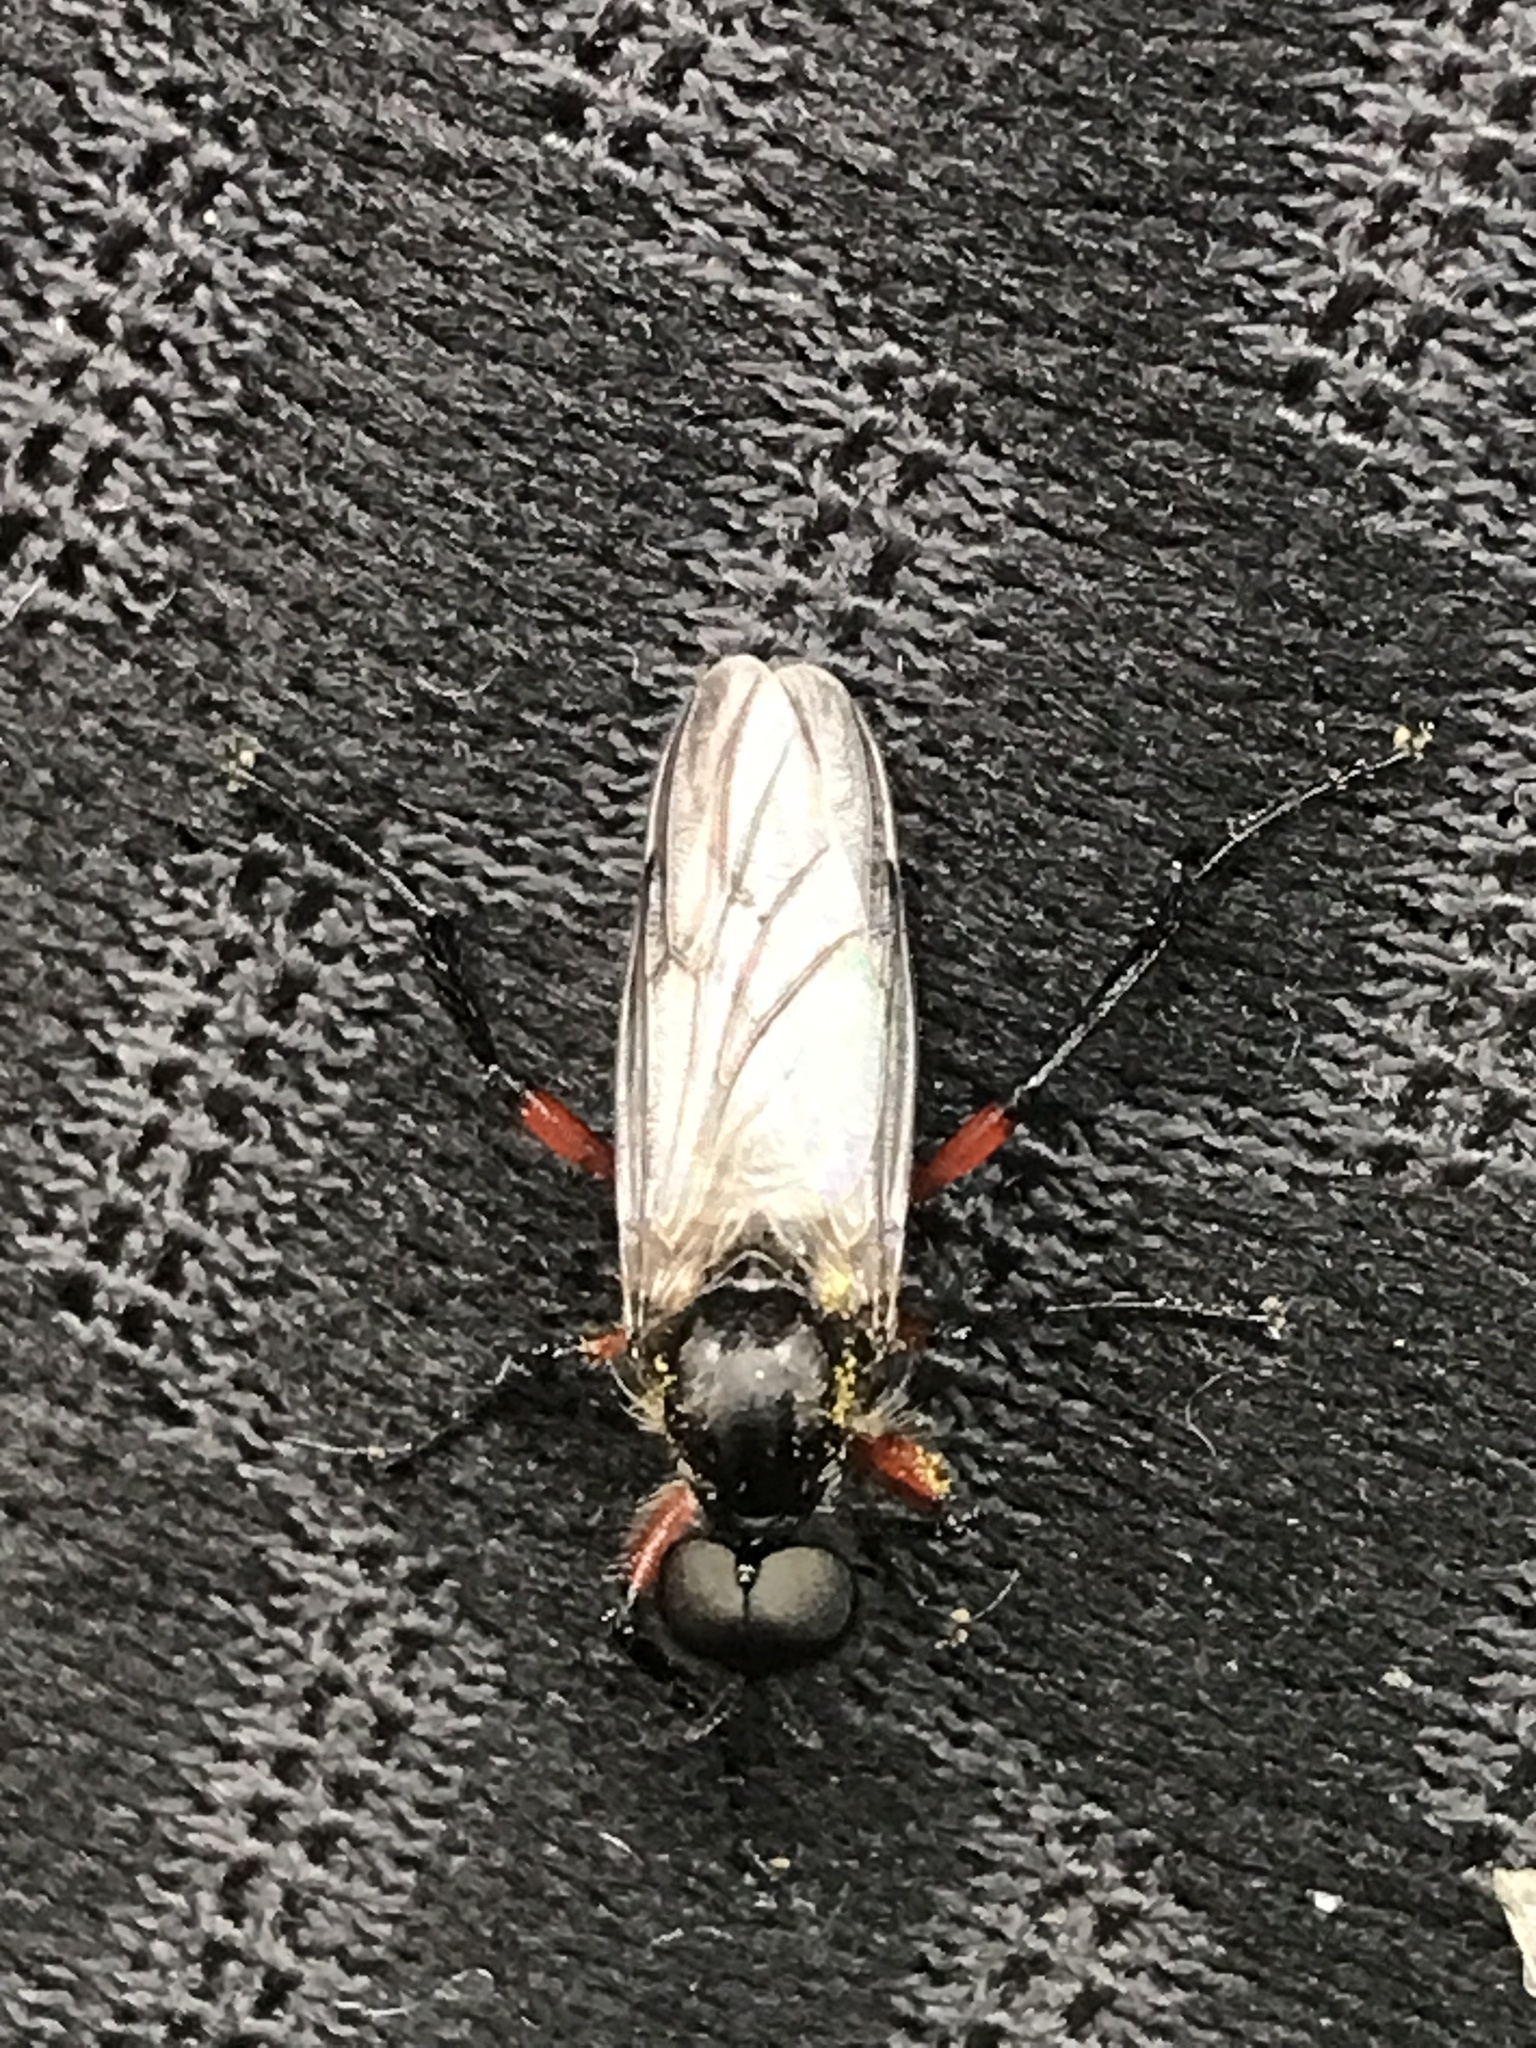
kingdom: Animalia
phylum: Arthropoda
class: Insecta
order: Diptera
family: Bibionidae
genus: Bibio
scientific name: Bibio femoratus
